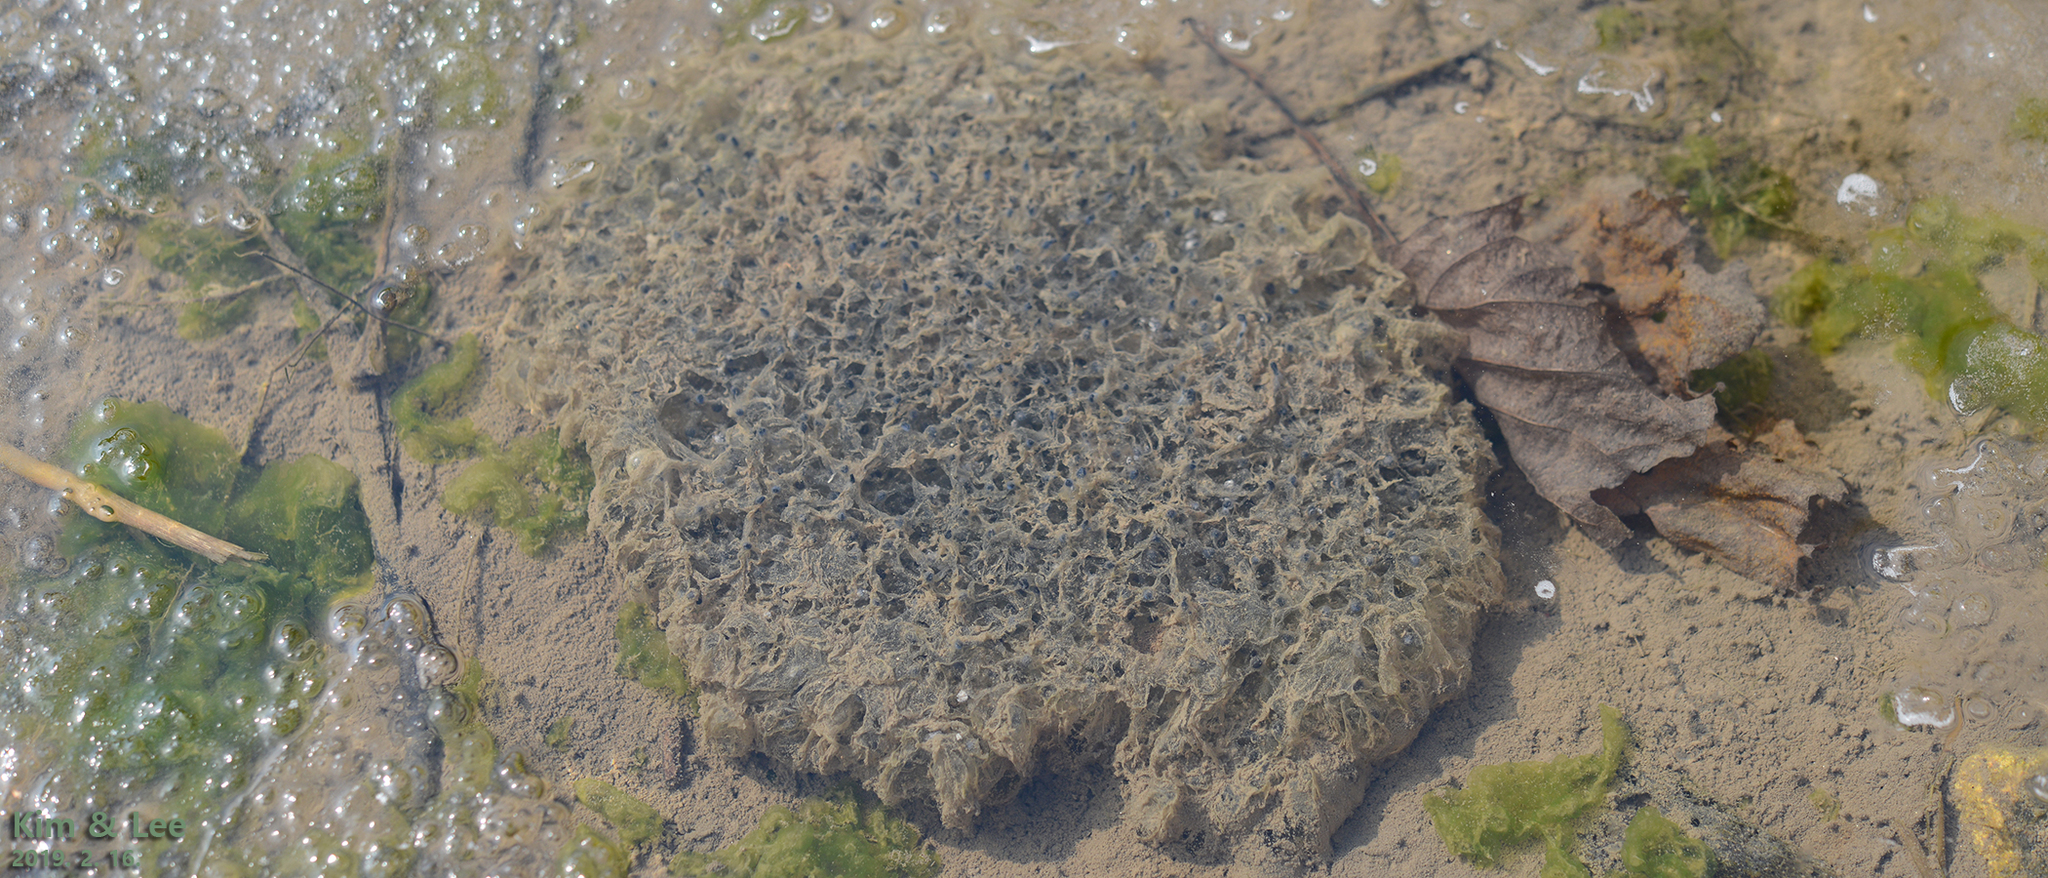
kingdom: Animalia
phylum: Chordata
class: Amphibia
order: Anura
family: Ranidae
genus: Rana
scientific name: Rana uenoi
